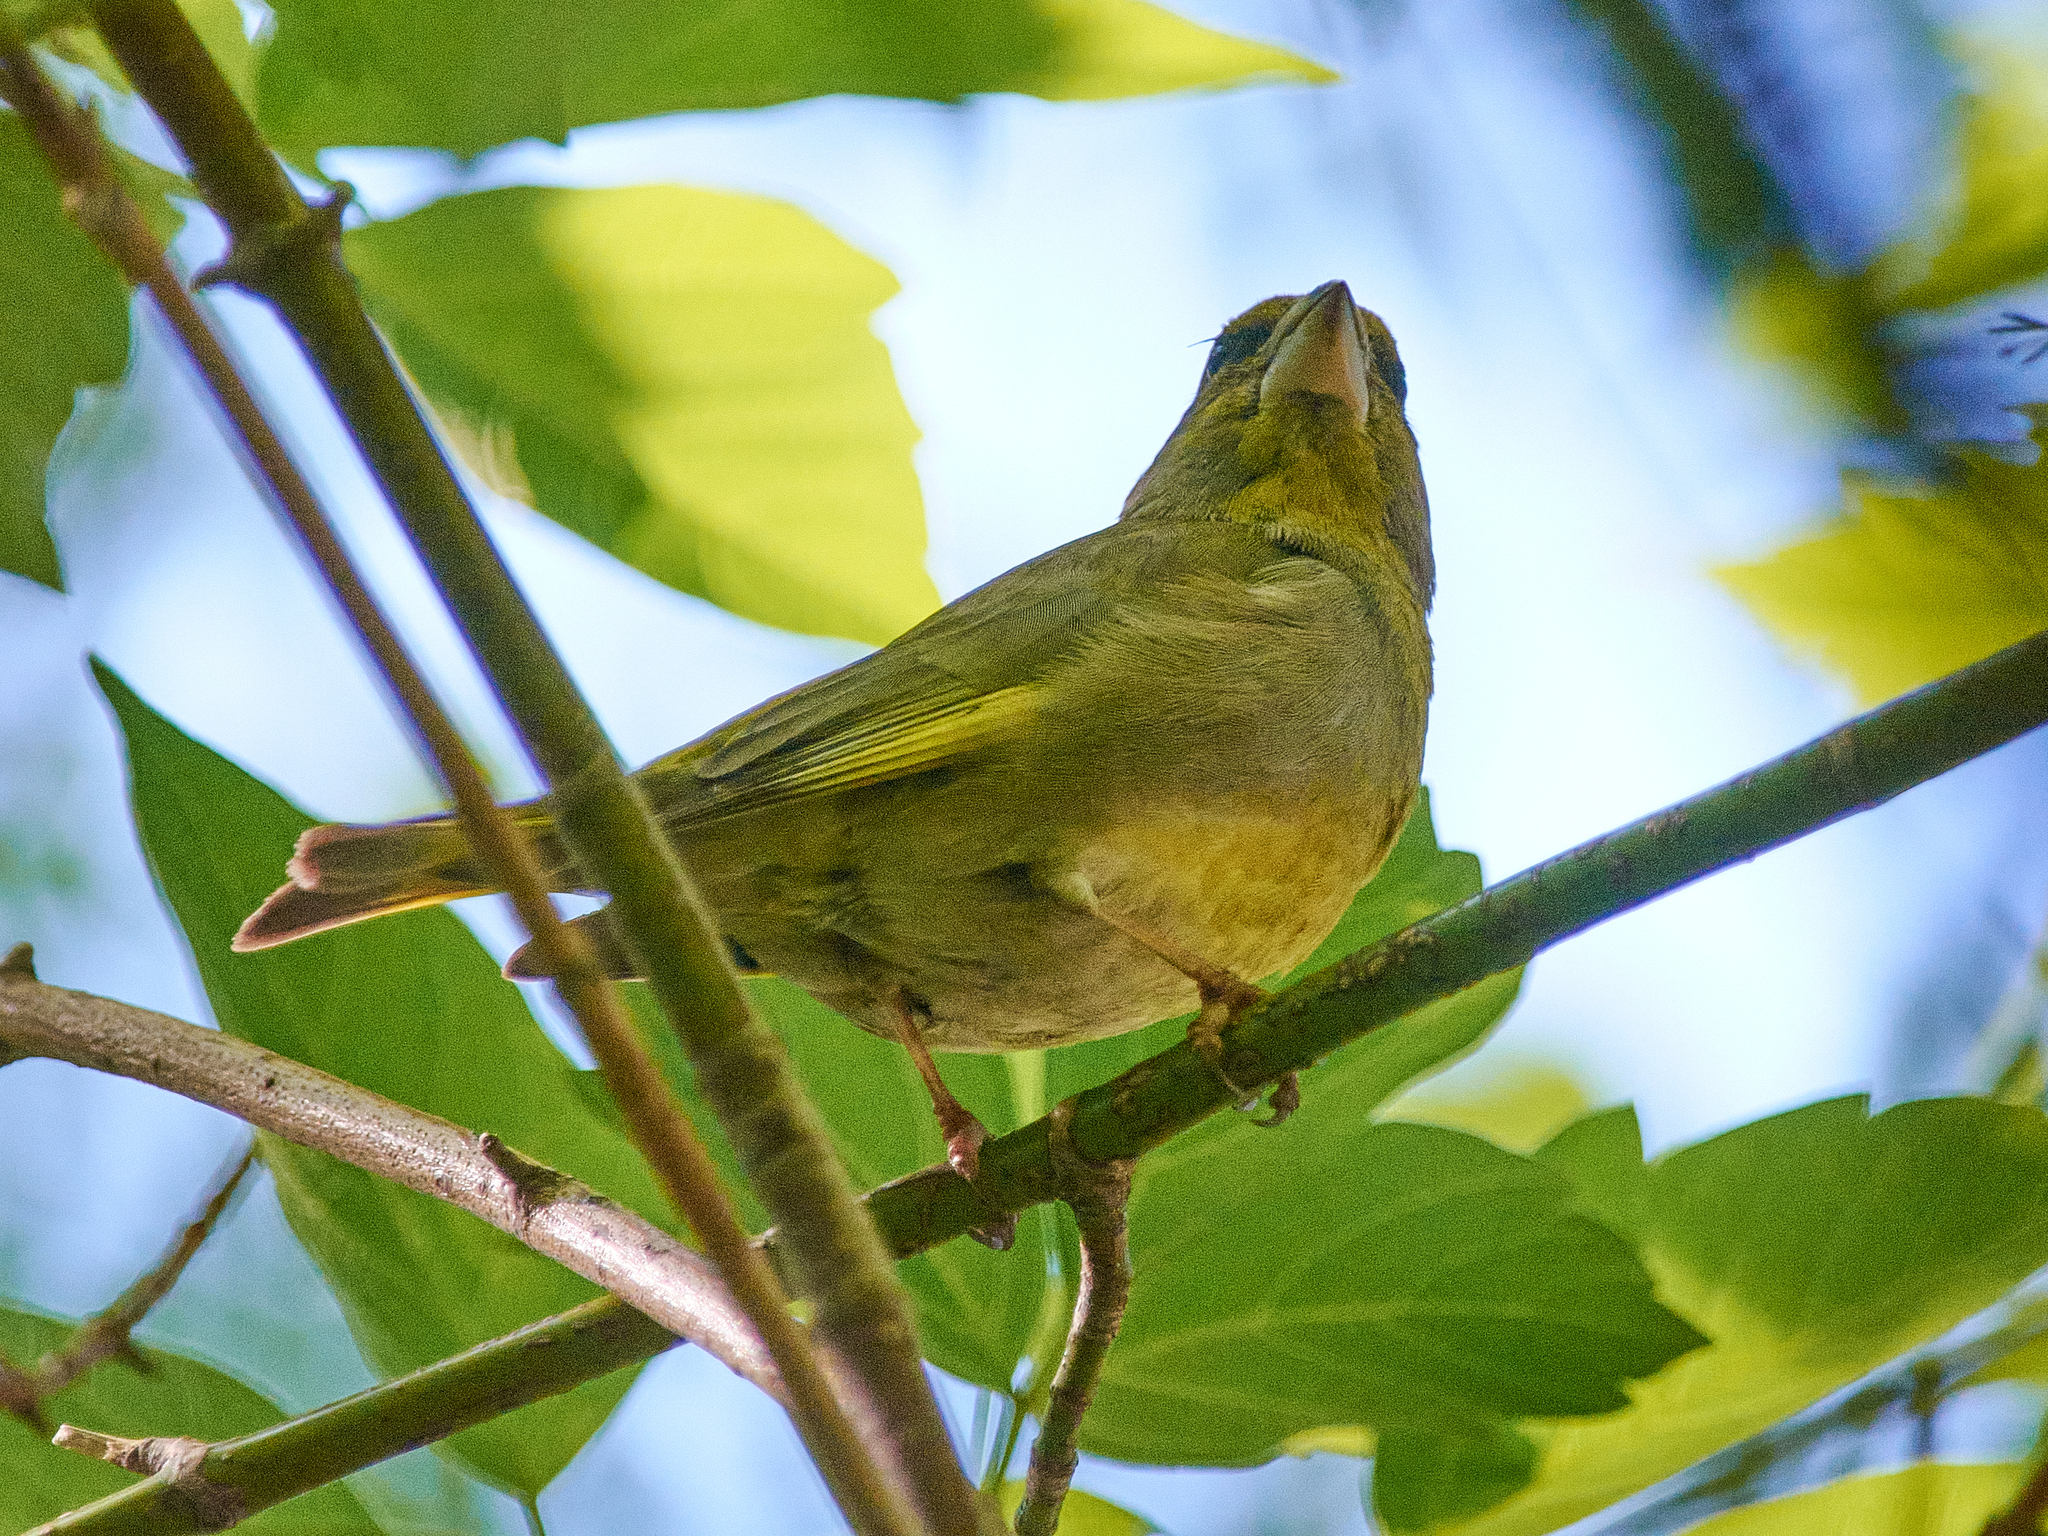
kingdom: Plantae
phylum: Tracheophyta
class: Liliopsida
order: Poales
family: Poaceae
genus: Chloris
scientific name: Chloris chloris
